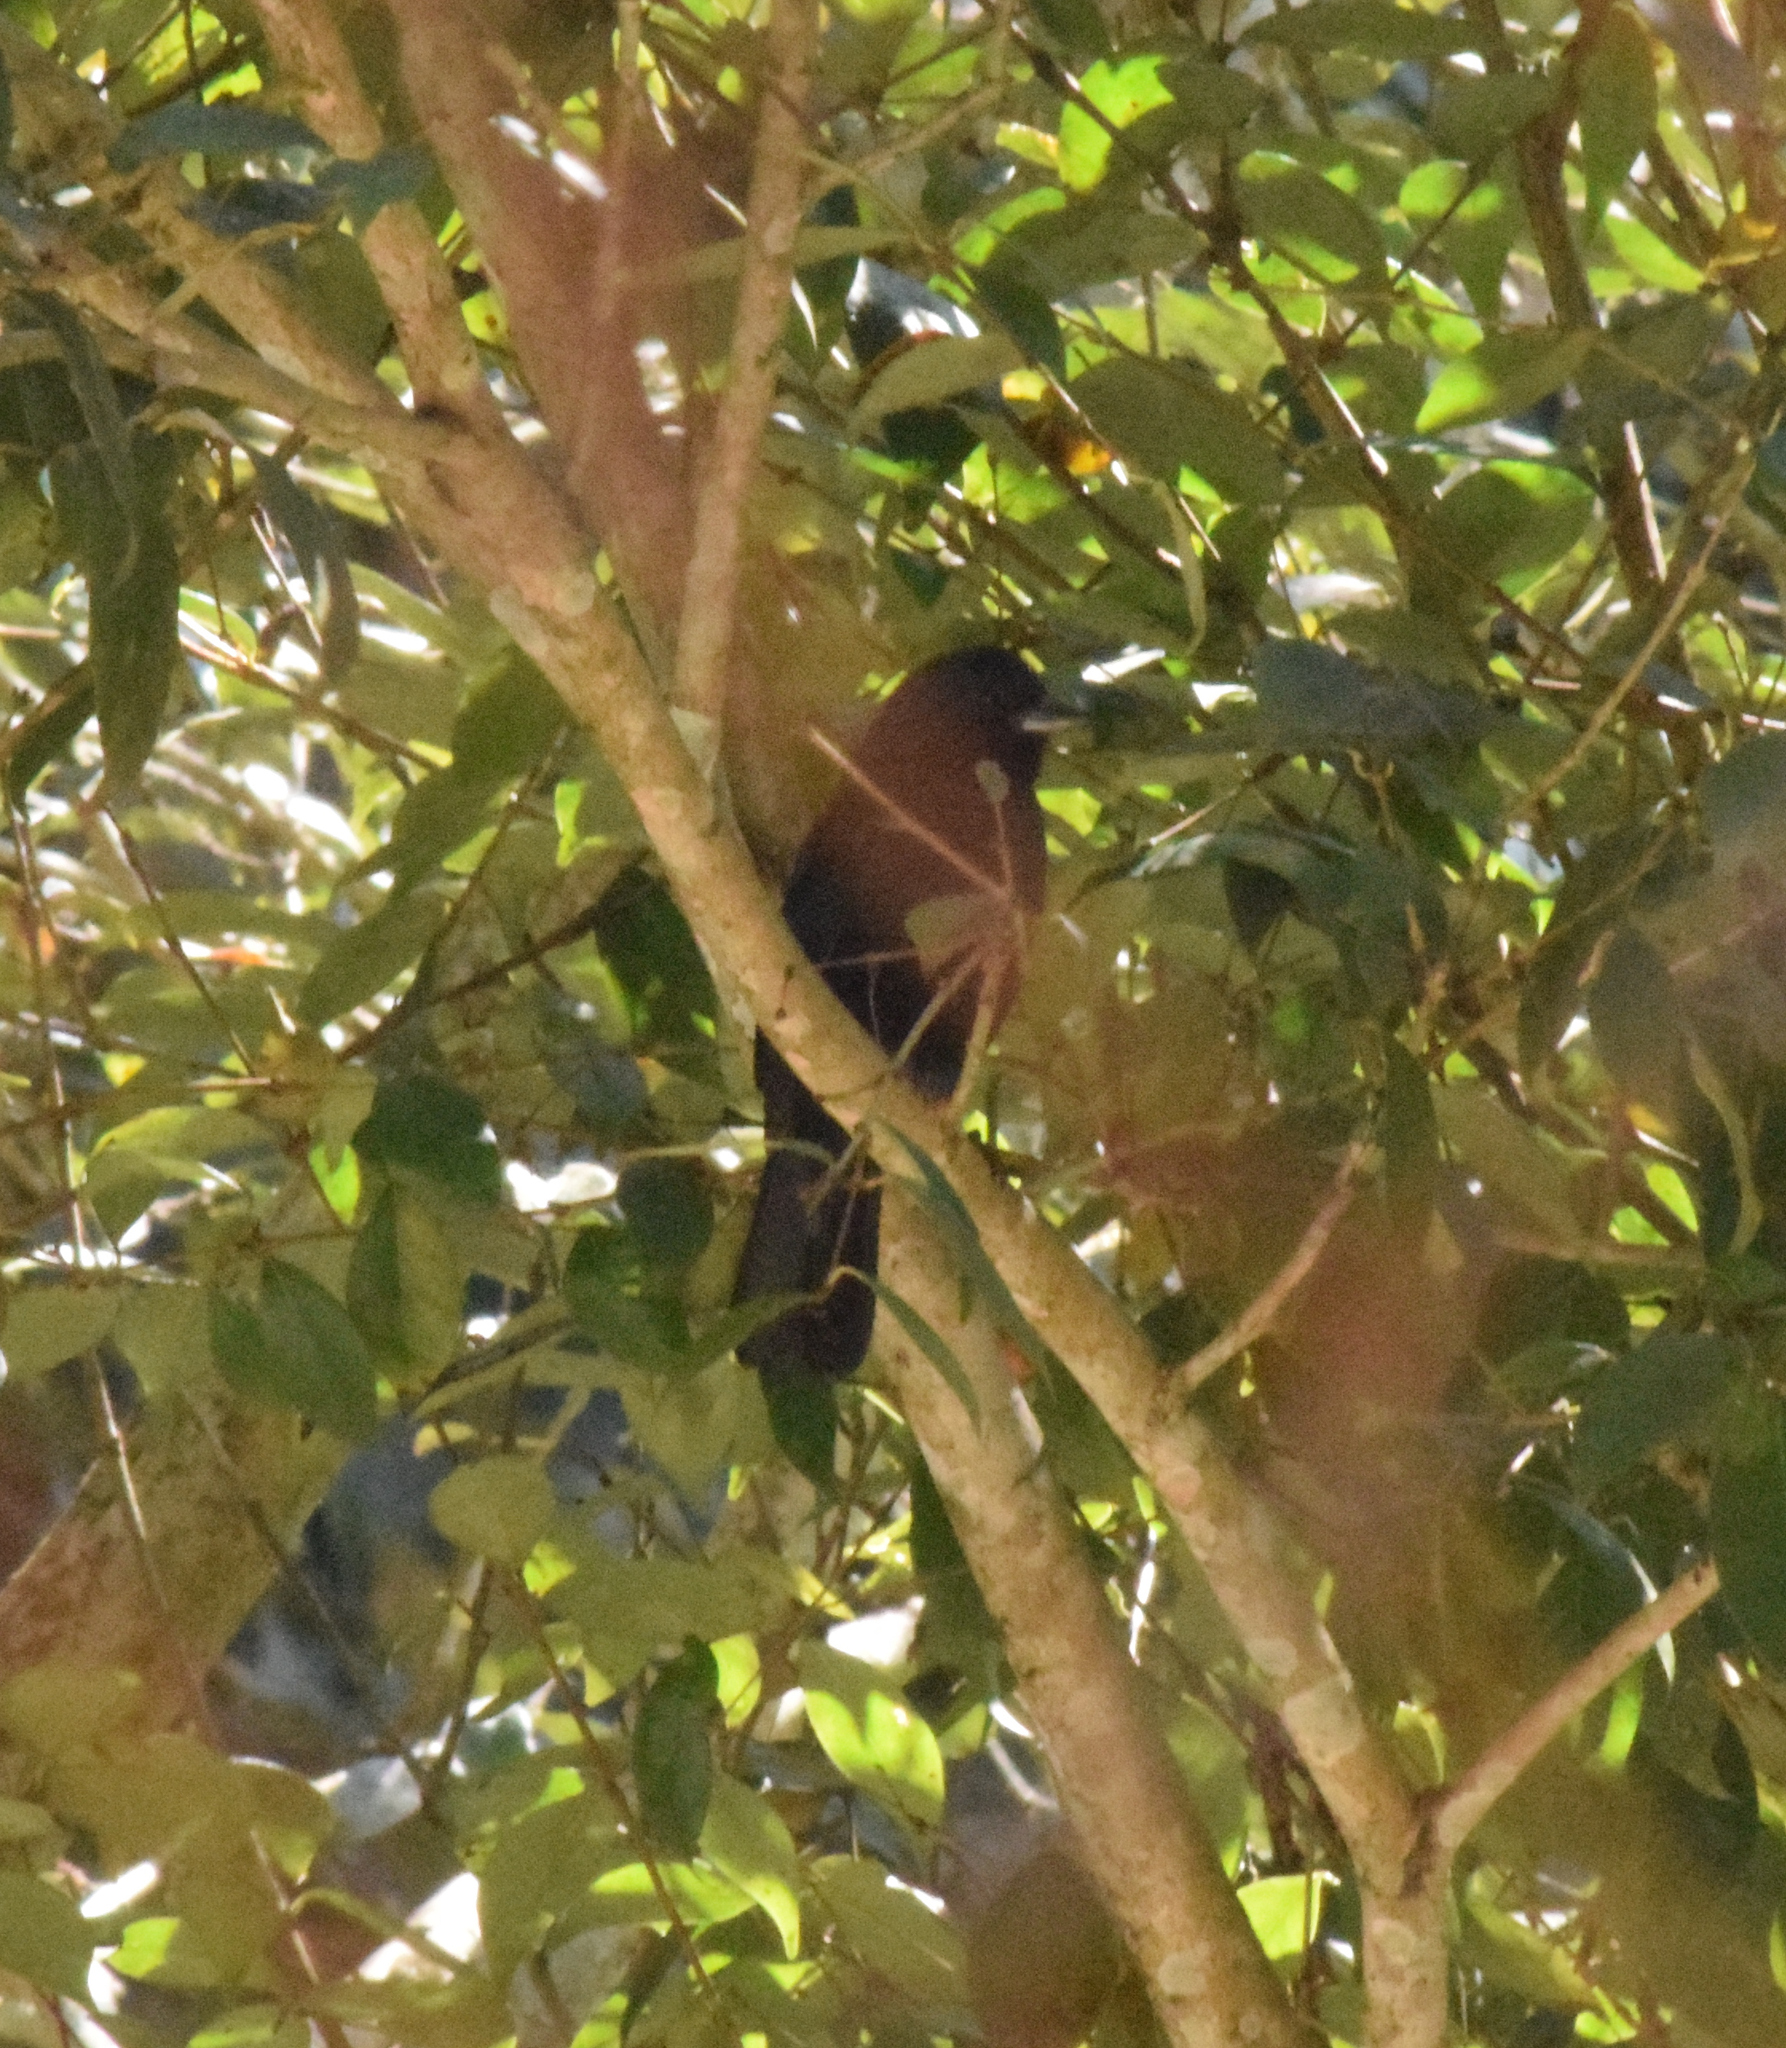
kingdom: Animalia
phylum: Chordata
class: Aves
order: Passeriformes
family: Thraupidae
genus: Tachyphonus
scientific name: Tachyphonus coronatus
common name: Ruby-crowned tanager
